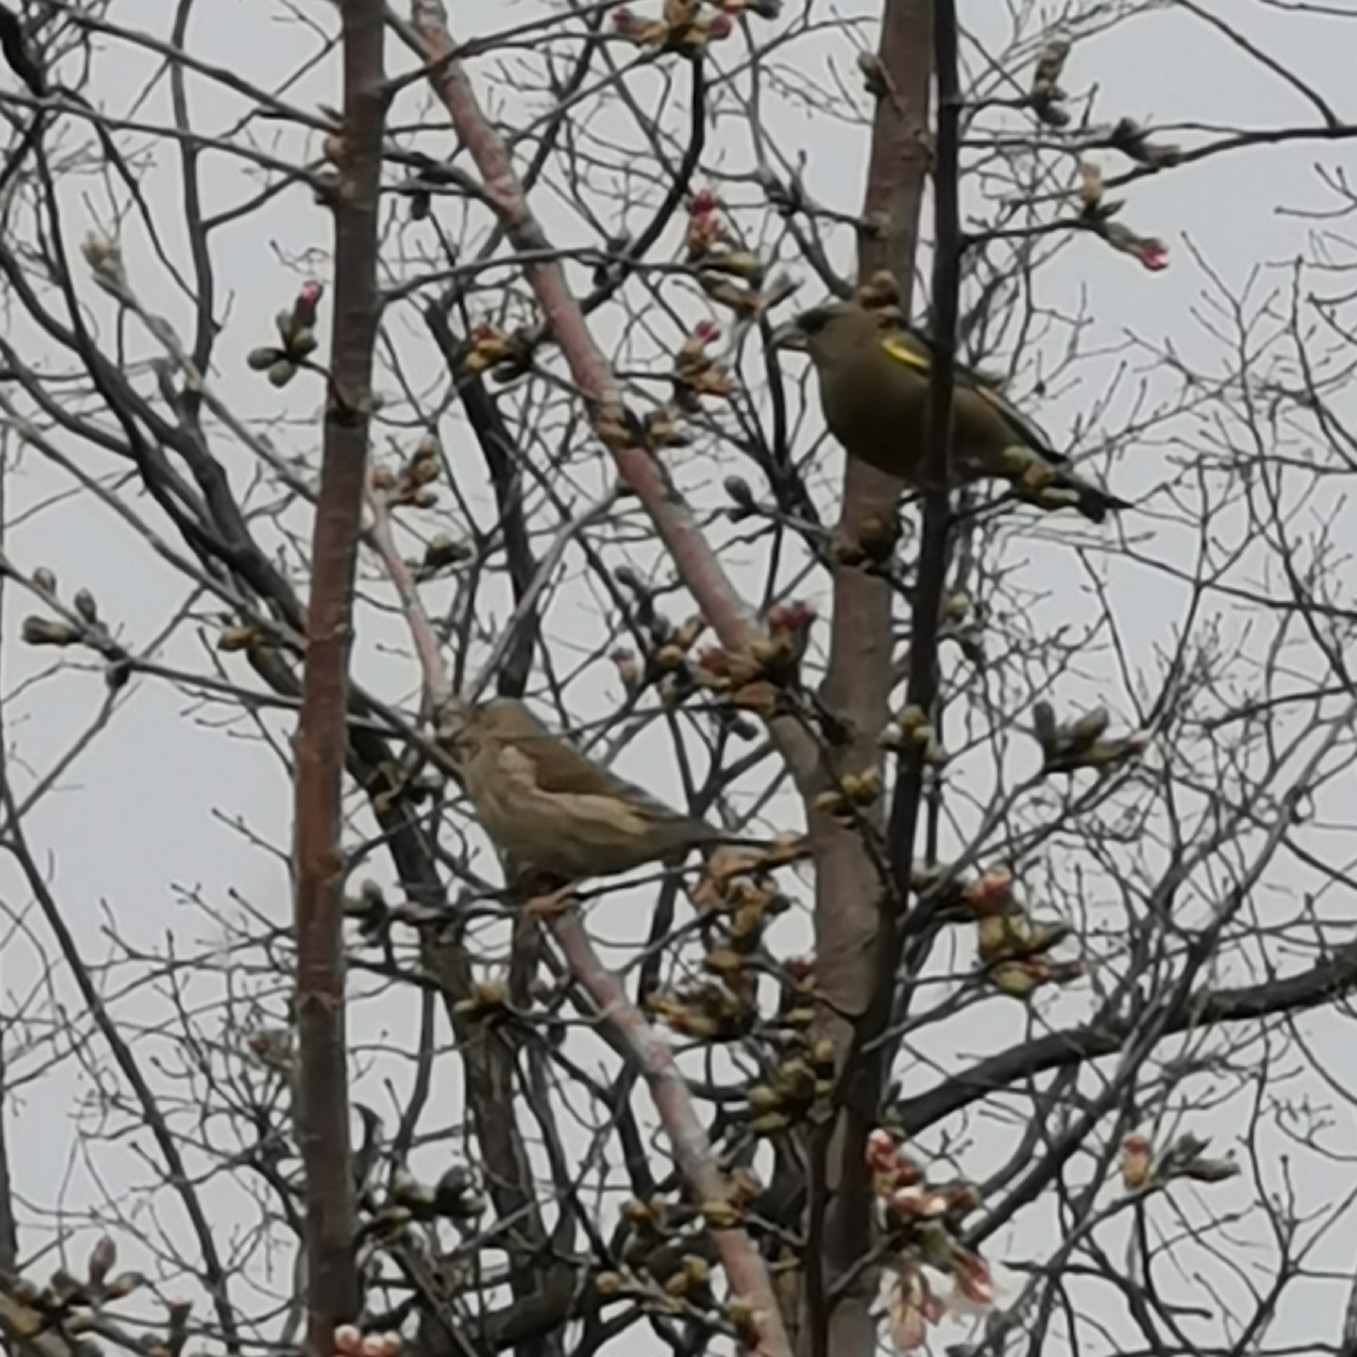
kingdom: Plantae
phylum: Tracheophyta
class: Liliopsida
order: Poales
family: Poaceae
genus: Chloris
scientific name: Chloris chloris
